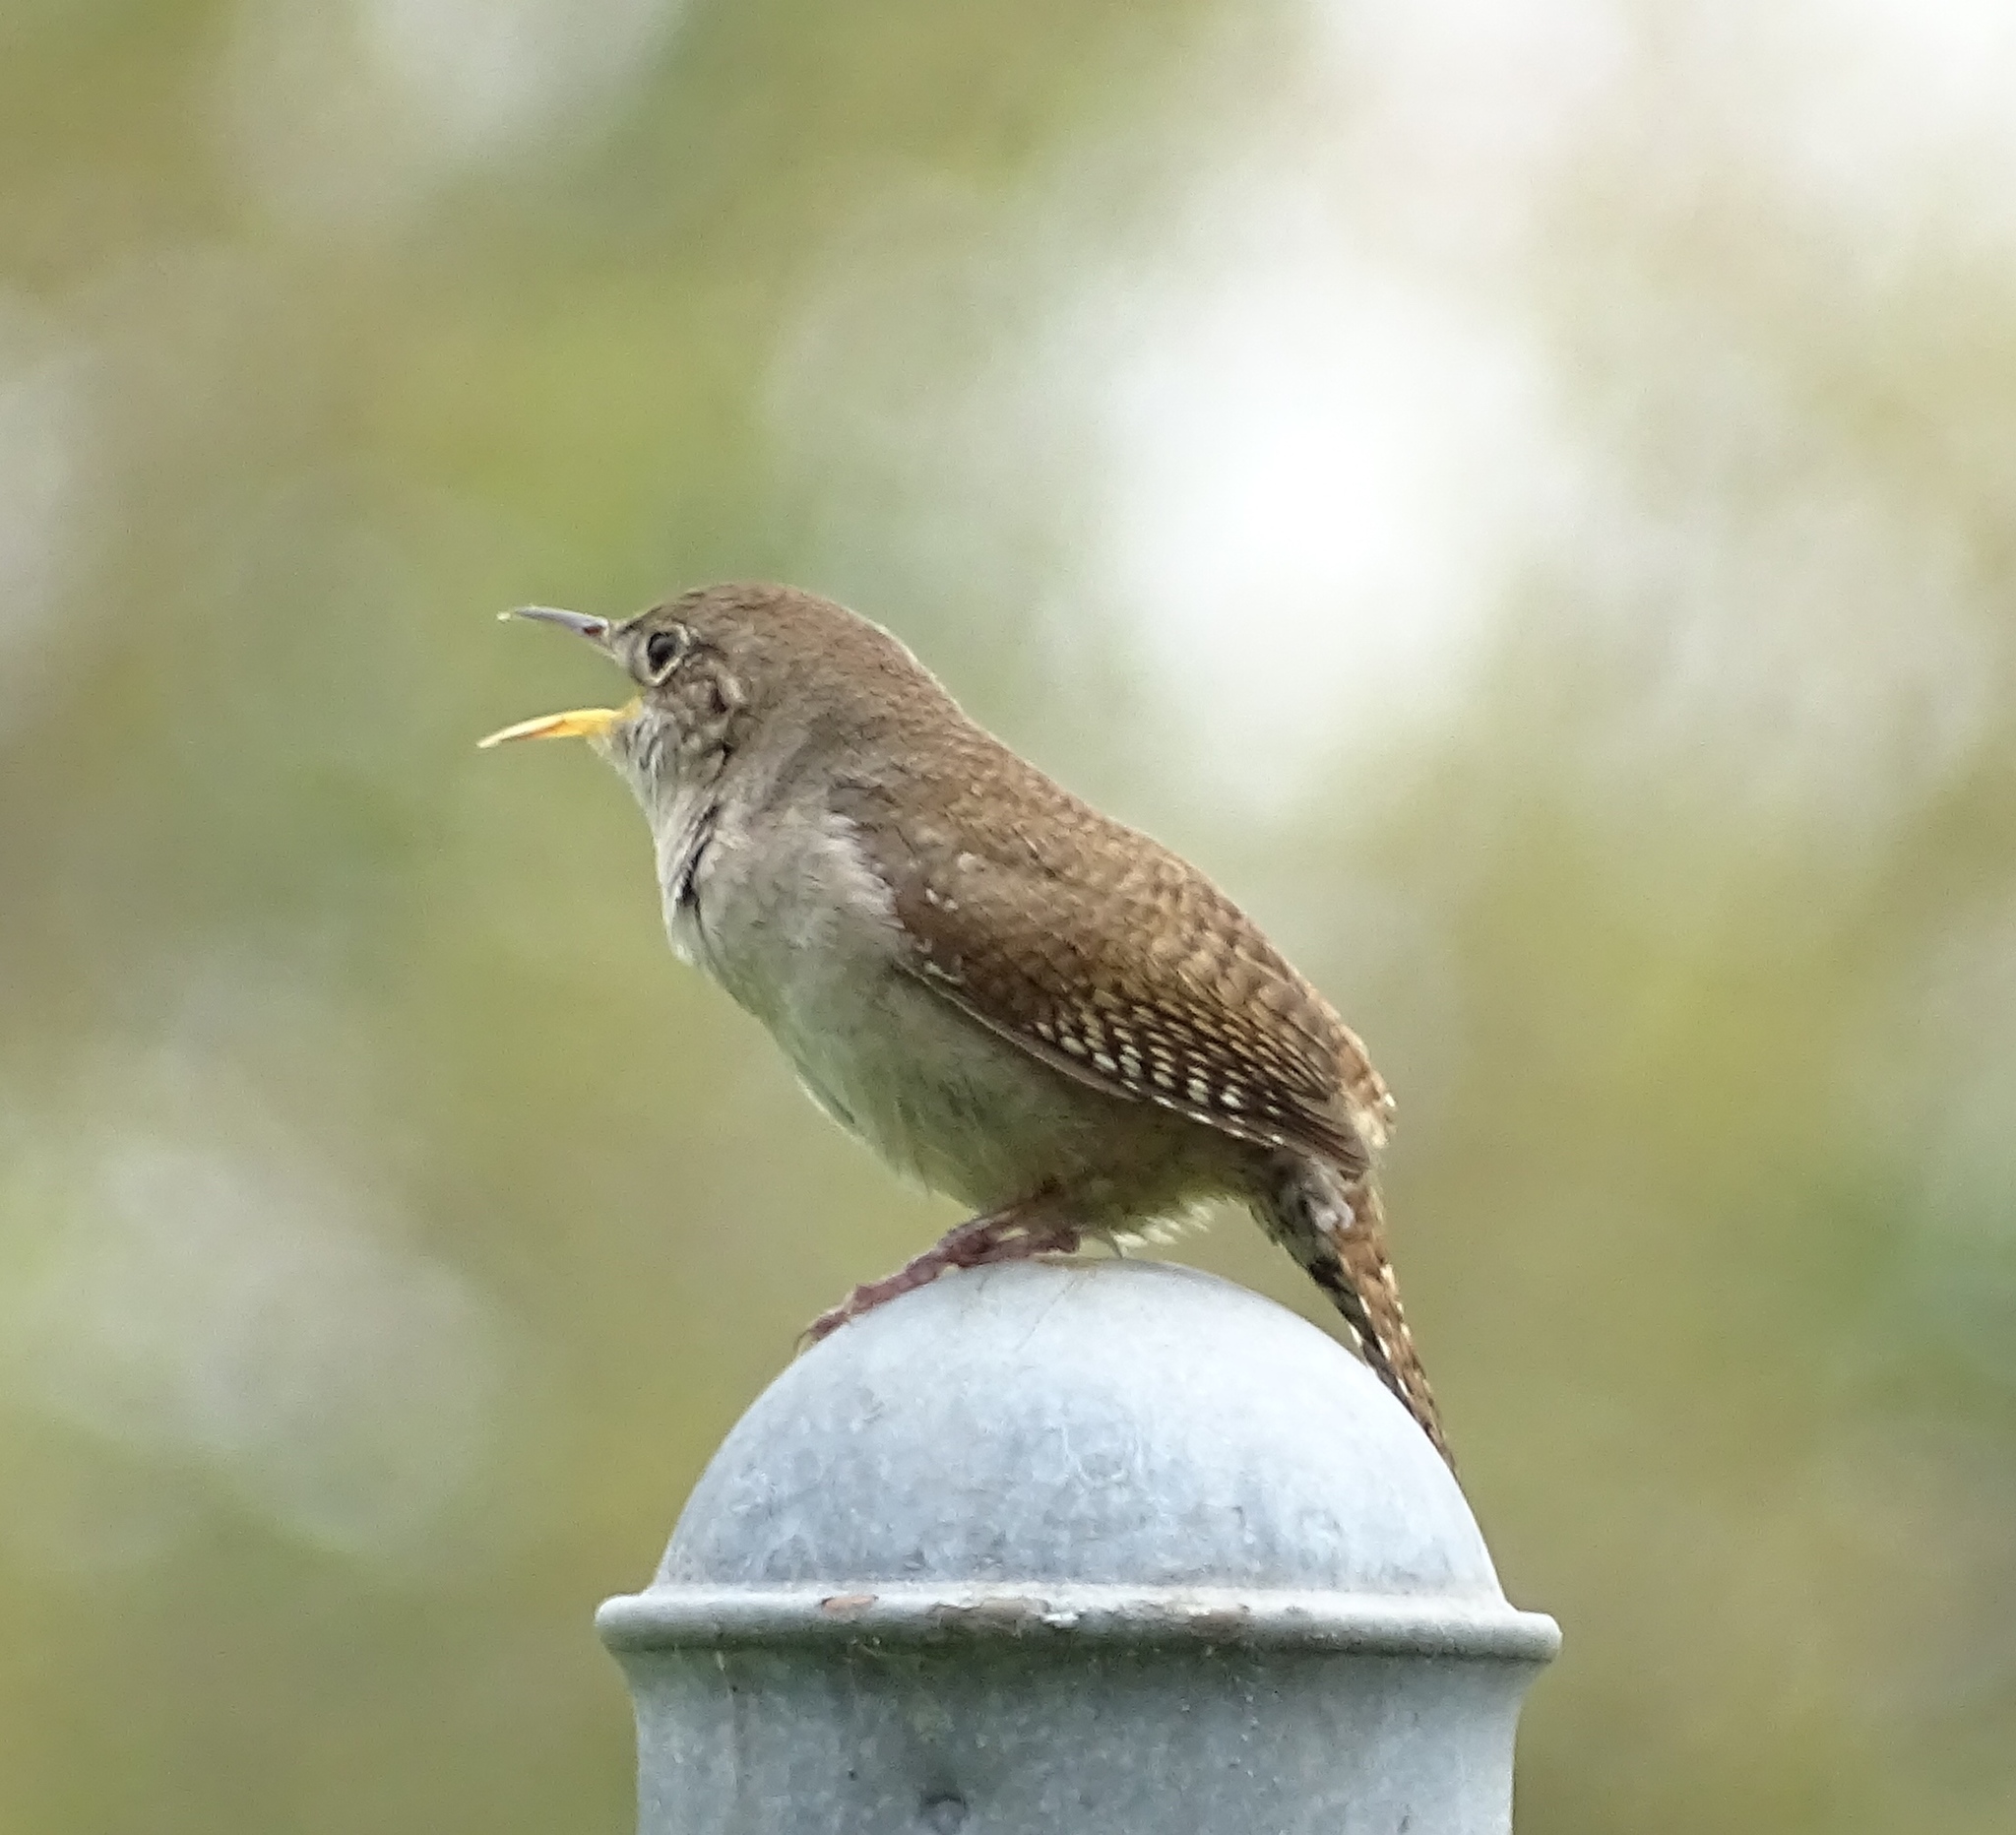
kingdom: Animalia
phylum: Chordata
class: Aves
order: Passeriformes
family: Troglodytidae
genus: Troglodytes
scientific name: Troglodytes aedon
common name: House wren
